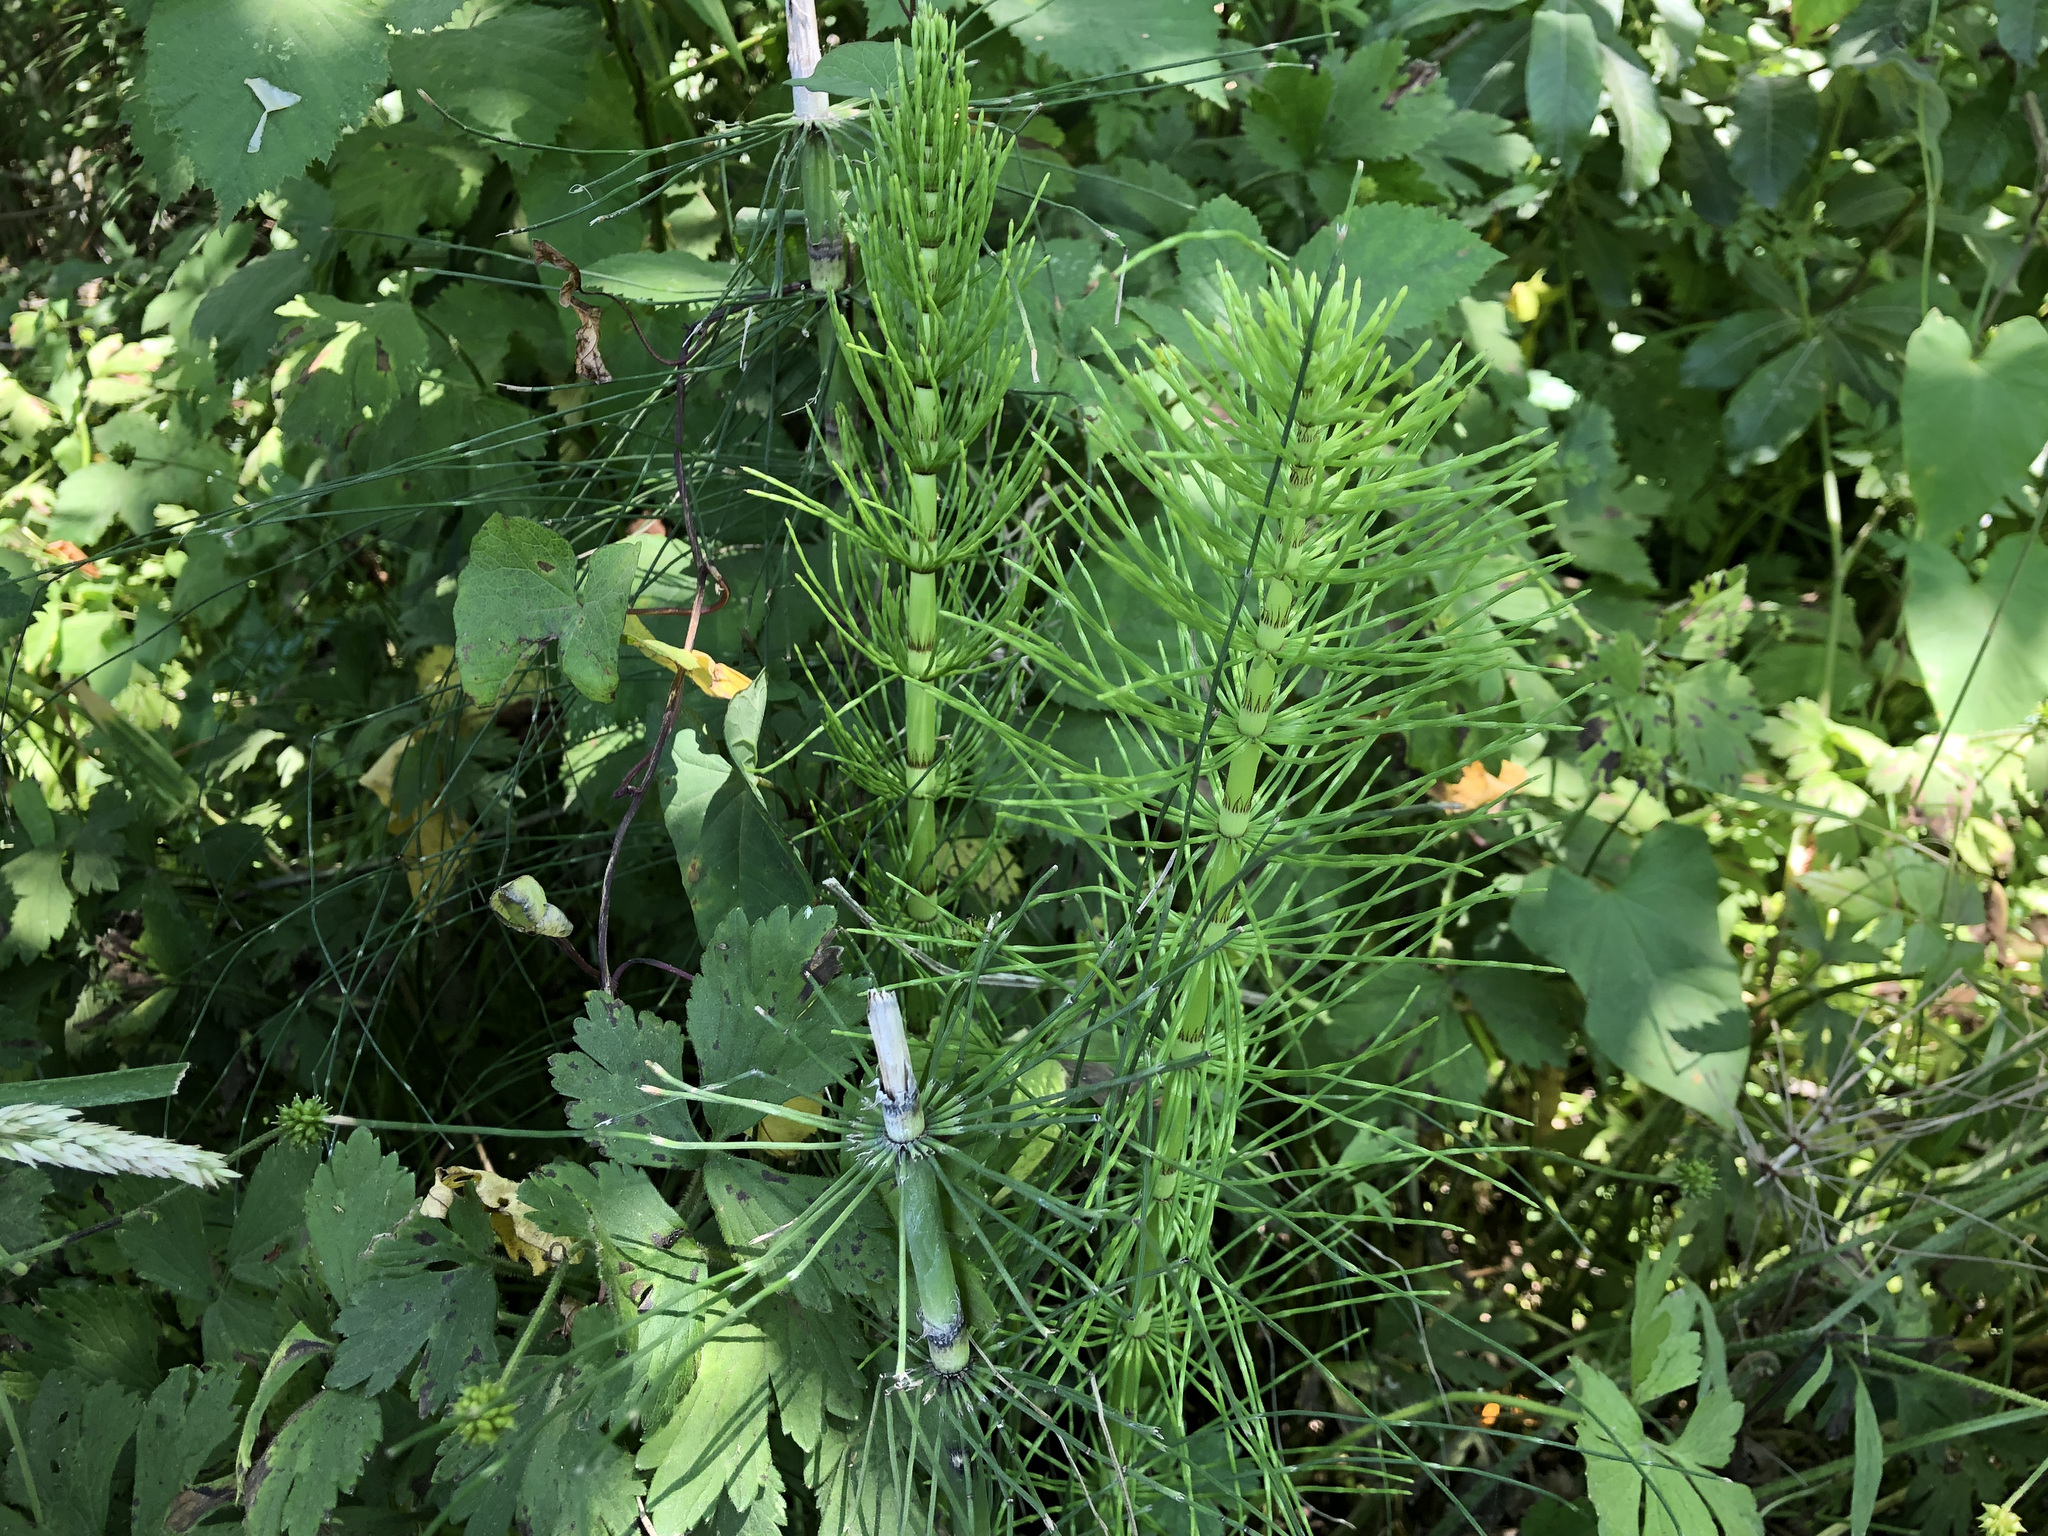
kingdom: Plantae
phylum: Tracheophyta
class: Polypodiopsida
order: Equisetales
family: Equisetaceae
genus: Equisetum
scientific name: Equisetum braunii
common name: Braun's horsetail
